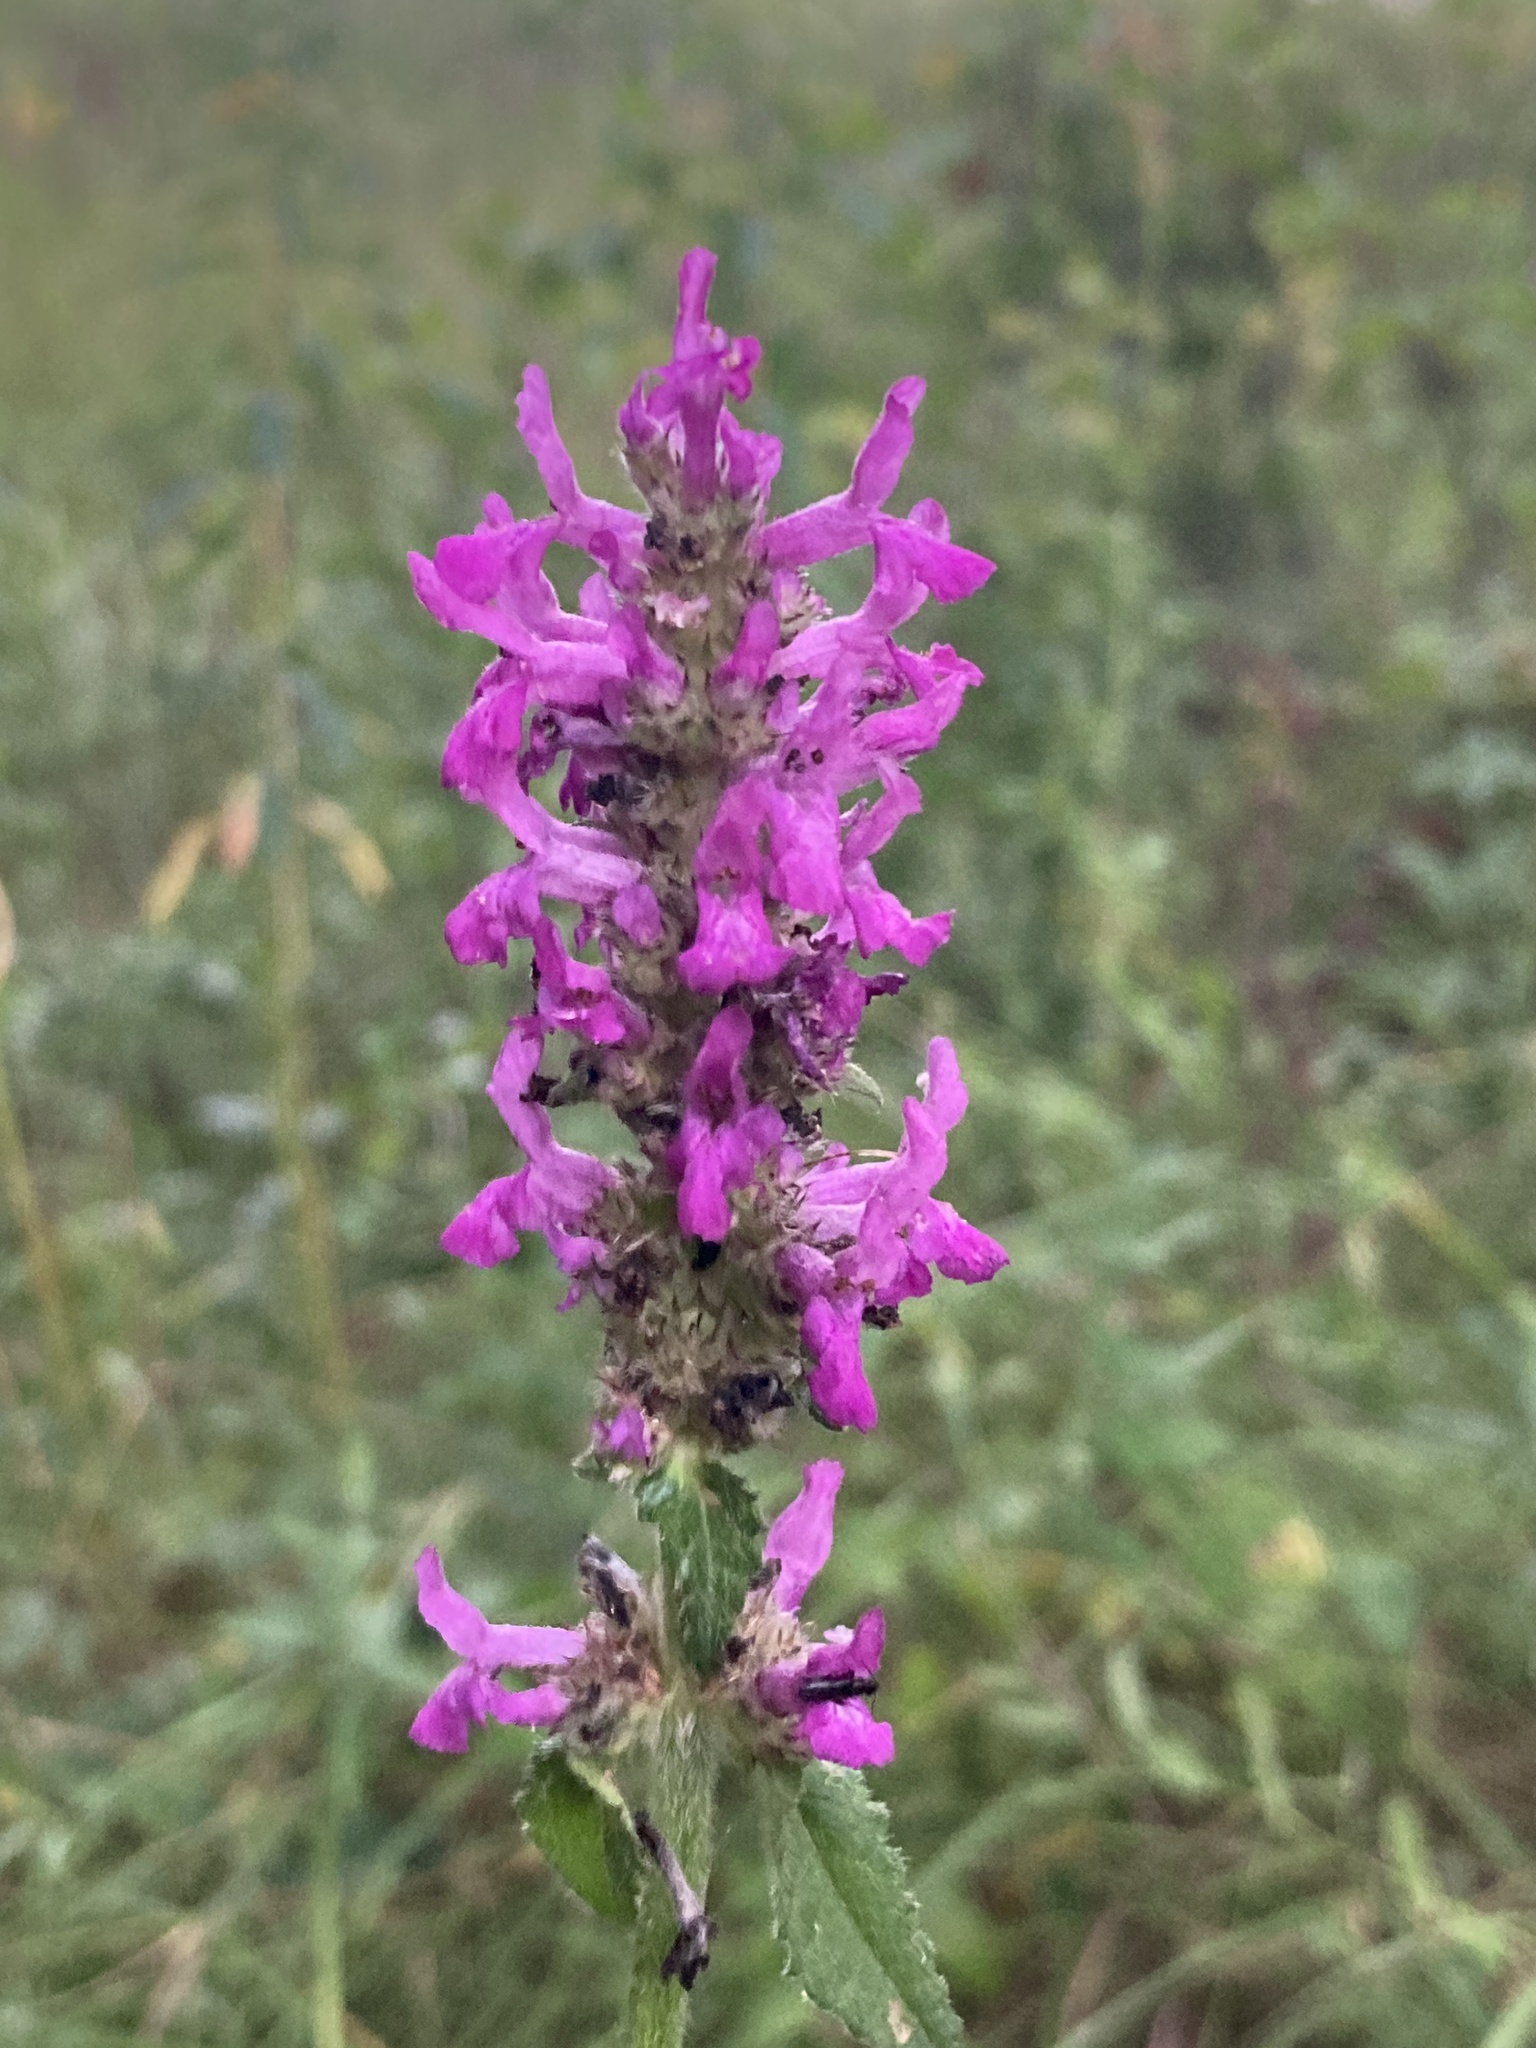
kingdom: Plantae
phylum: Tracheophyta
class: Magnoliopsida
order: Lamiales
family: Lamiaceae
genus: Betonica
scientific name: Betonica officinalis
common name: Bishop's-wort
